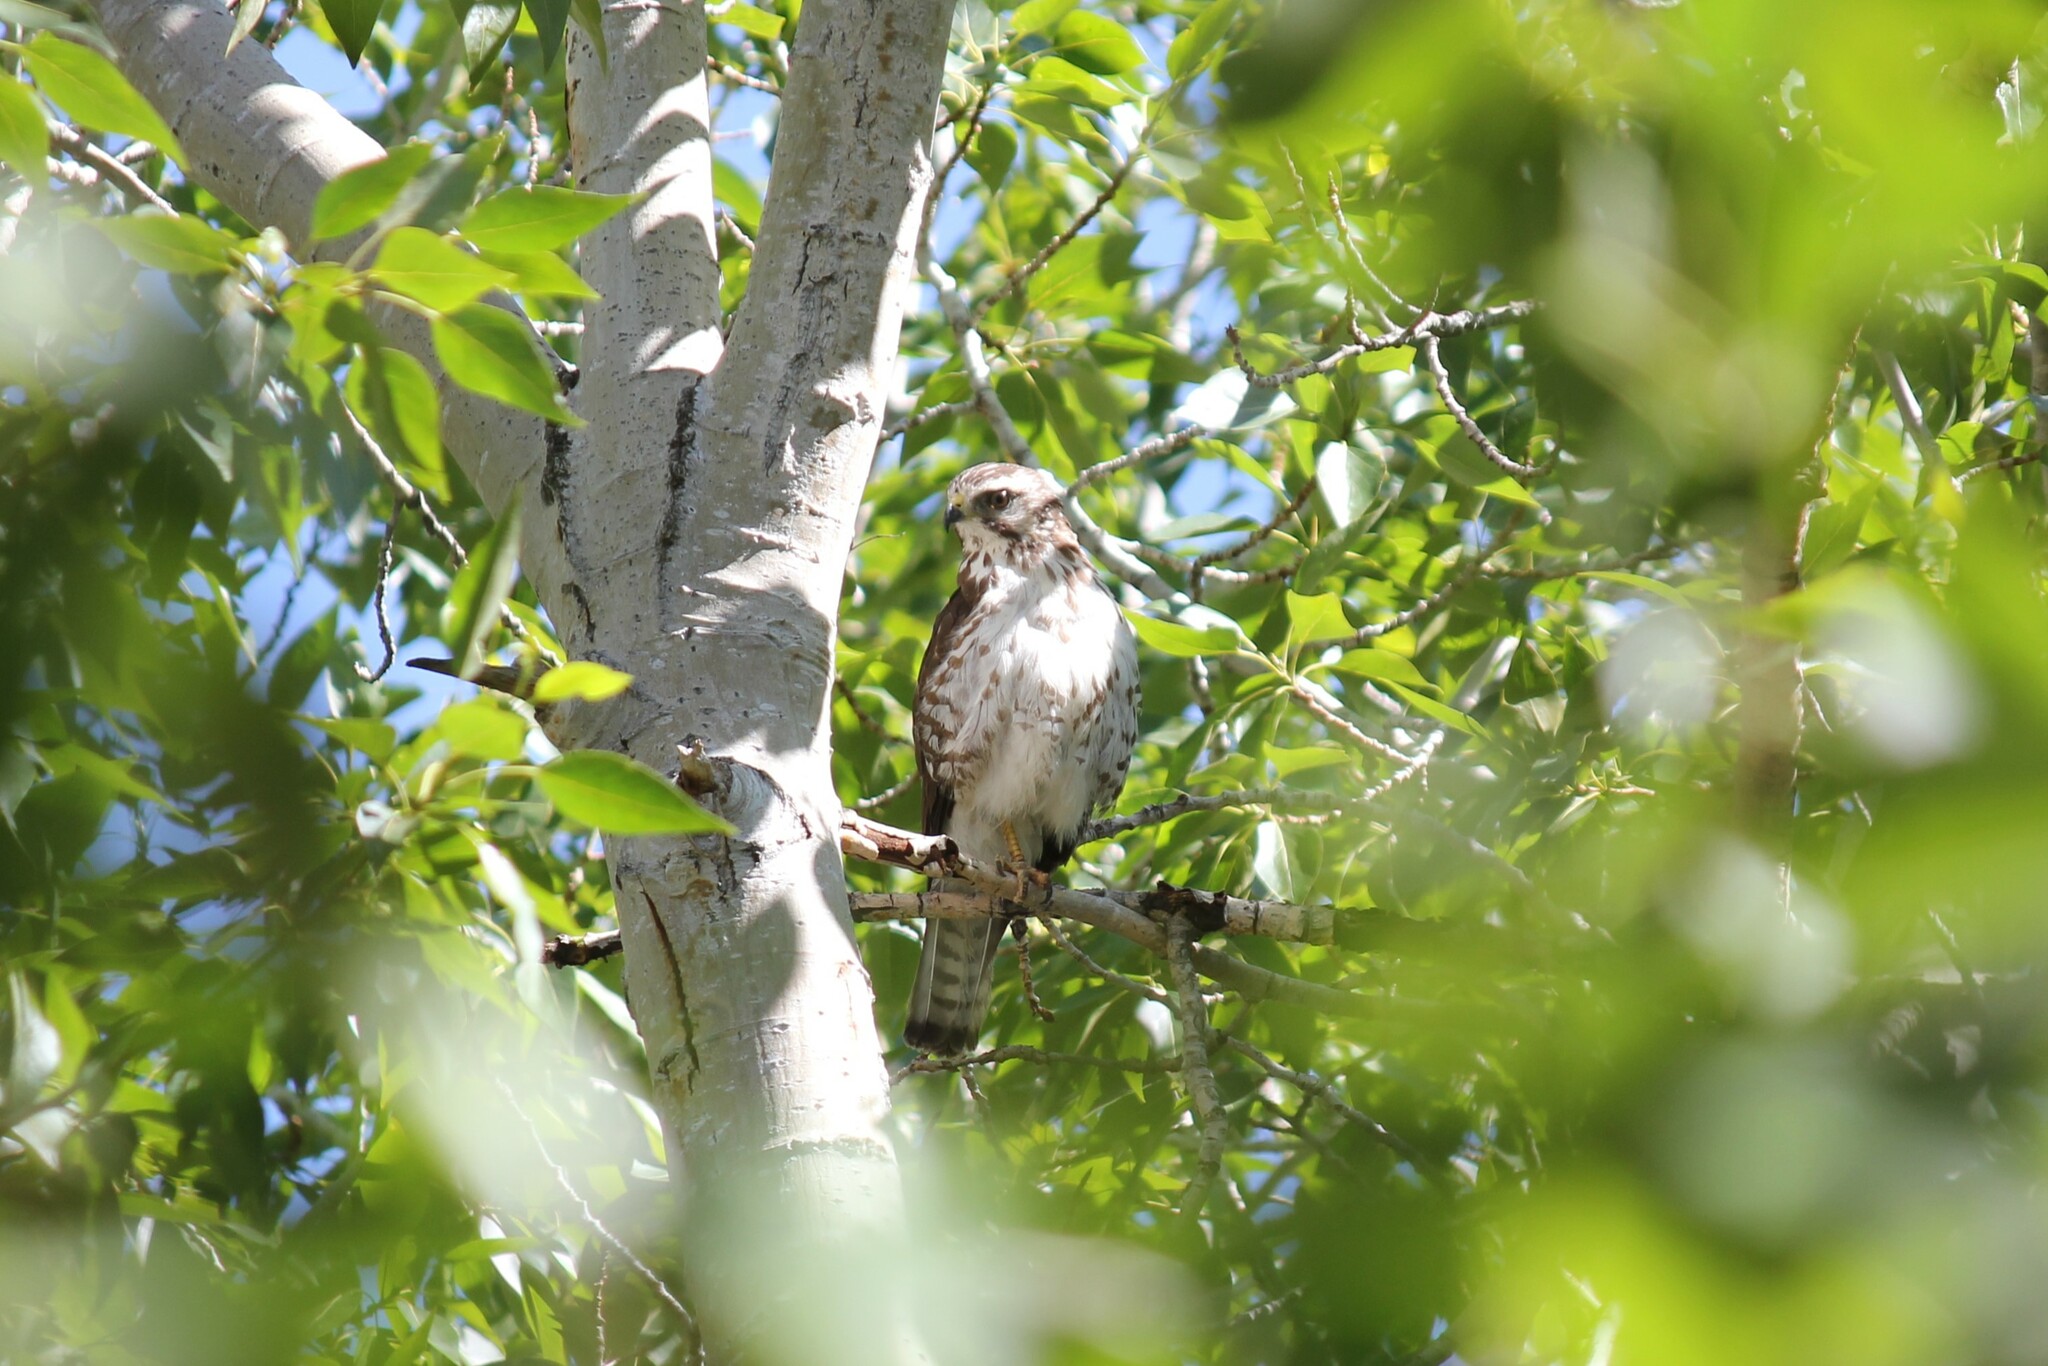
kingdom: Animalia
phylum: Chordata
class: Aves
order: Accipitriformes
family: Accipitridae
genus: Buteo
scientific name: Buteo platypterus
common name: Broad-winged hawk
